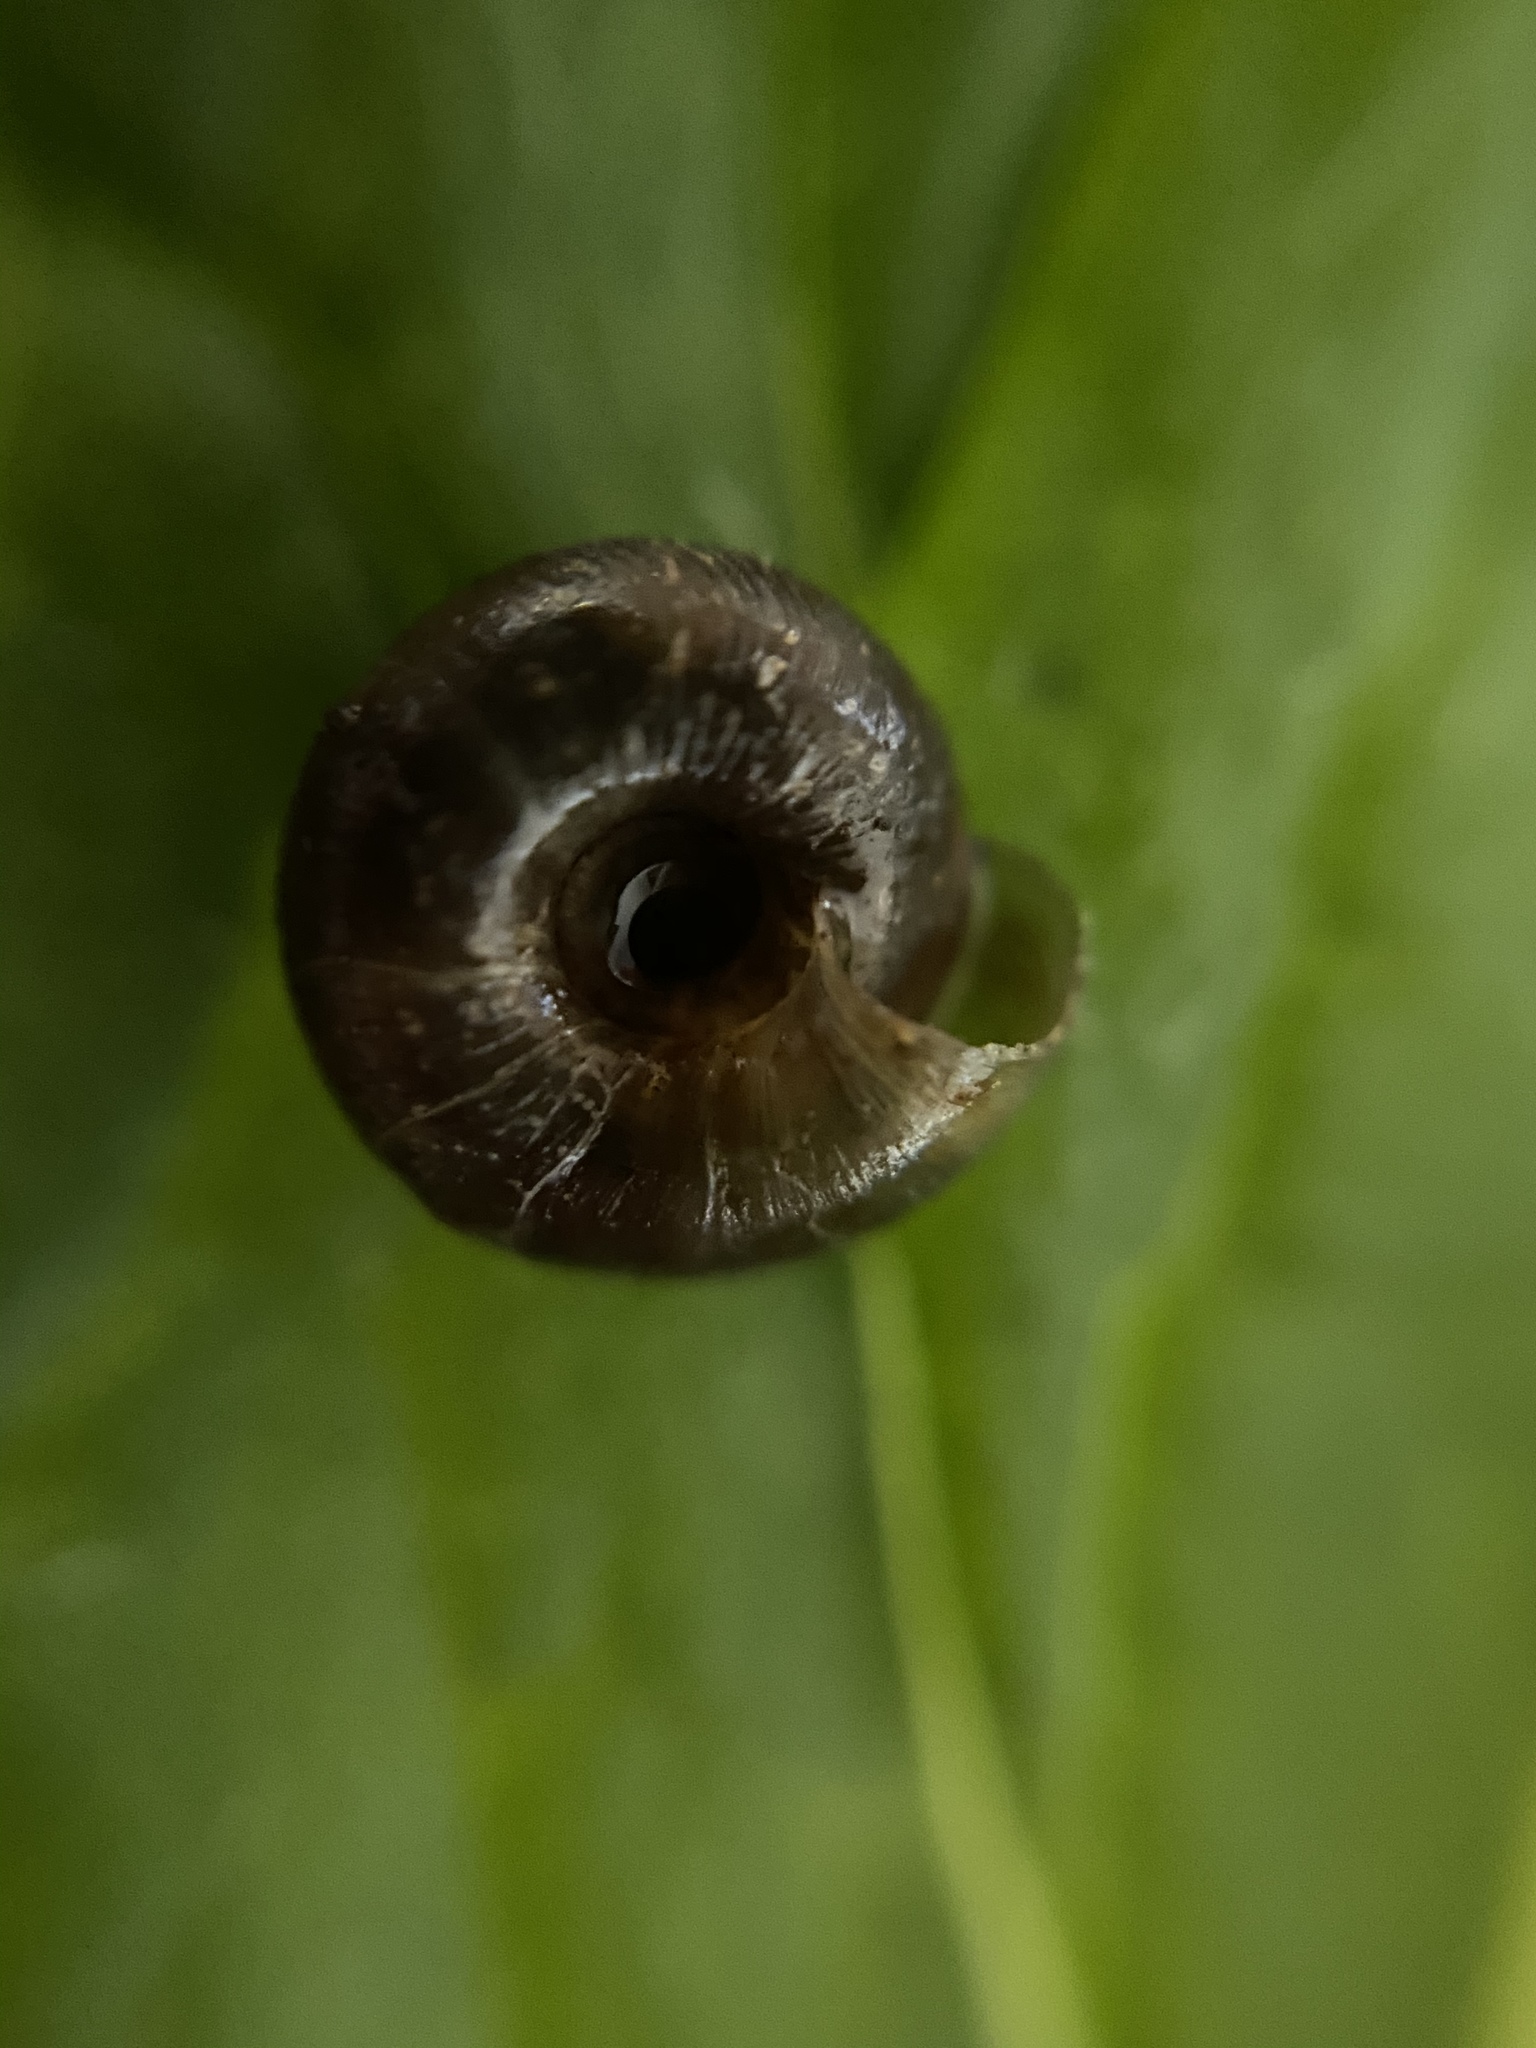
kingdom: Animalia
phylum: Mollusca
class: Gastropoda
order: Stylommatophora
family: Discidae
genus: Discus
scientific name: Discus rotundatus
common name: Rounded snail
